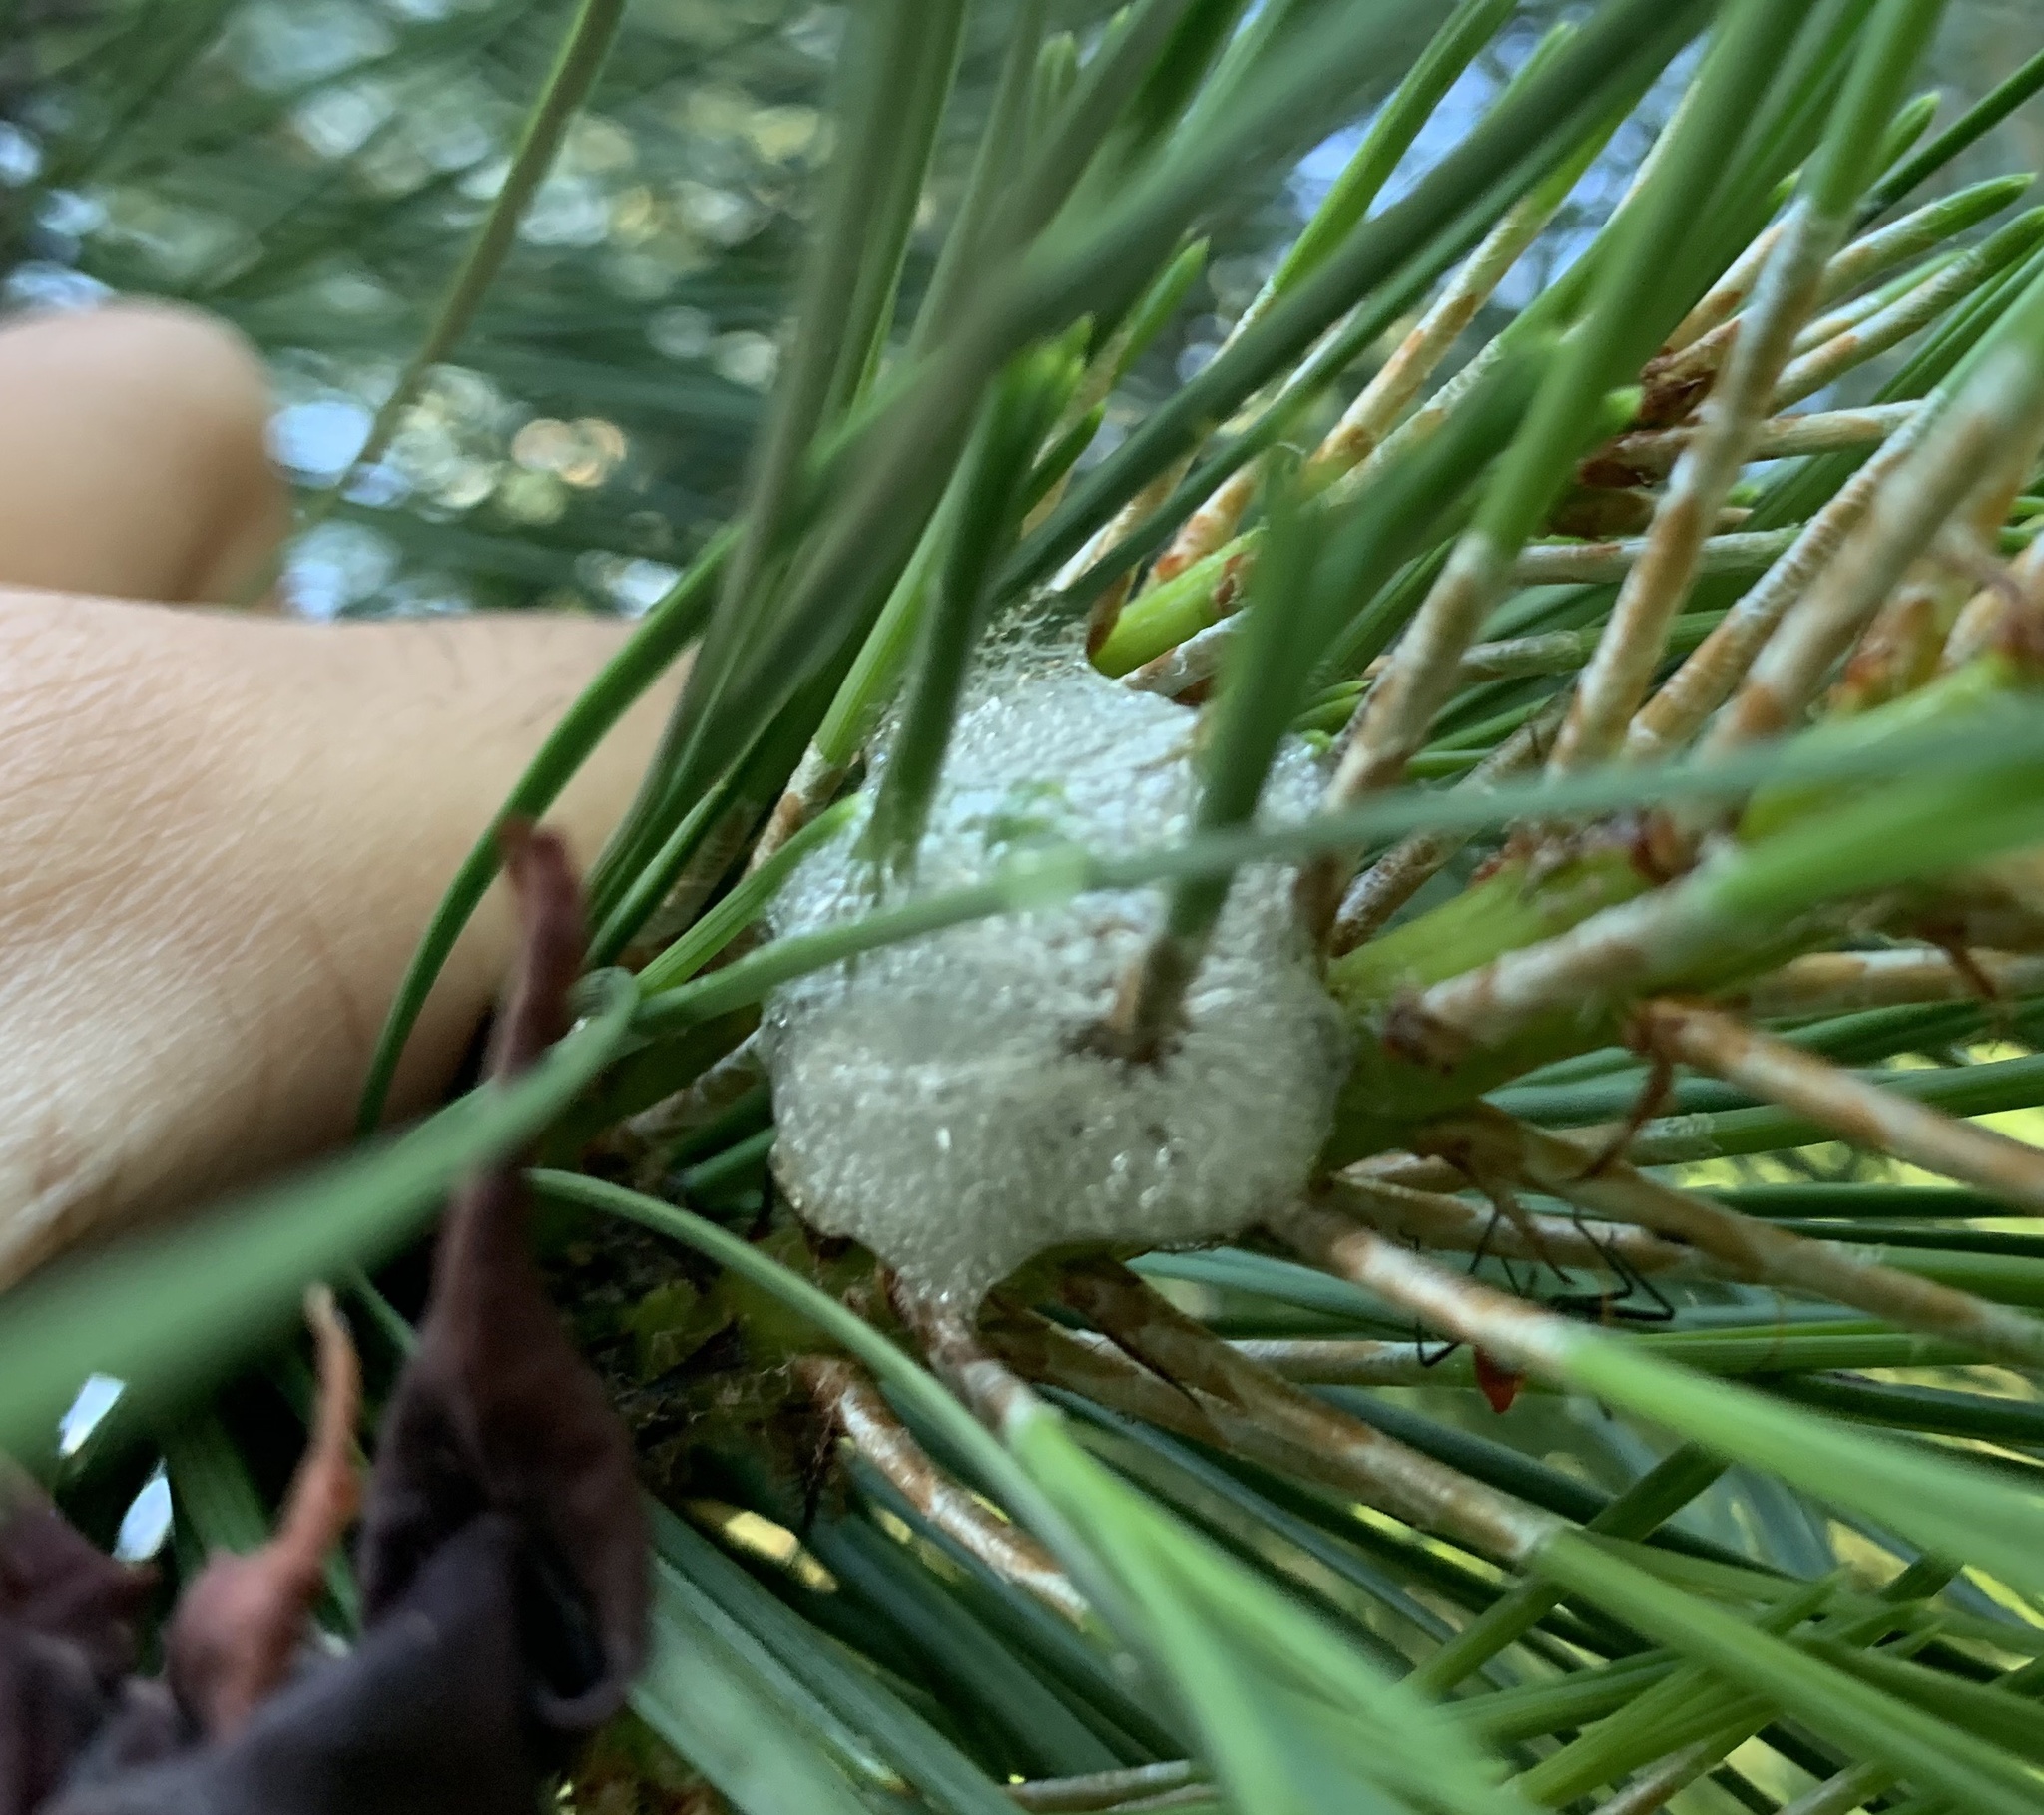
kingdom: Animalia
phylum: Arthropoda
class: Insecta
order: Hemiptera
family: Epipygidae
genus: Epipyga
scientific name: Epipyga cribrata
